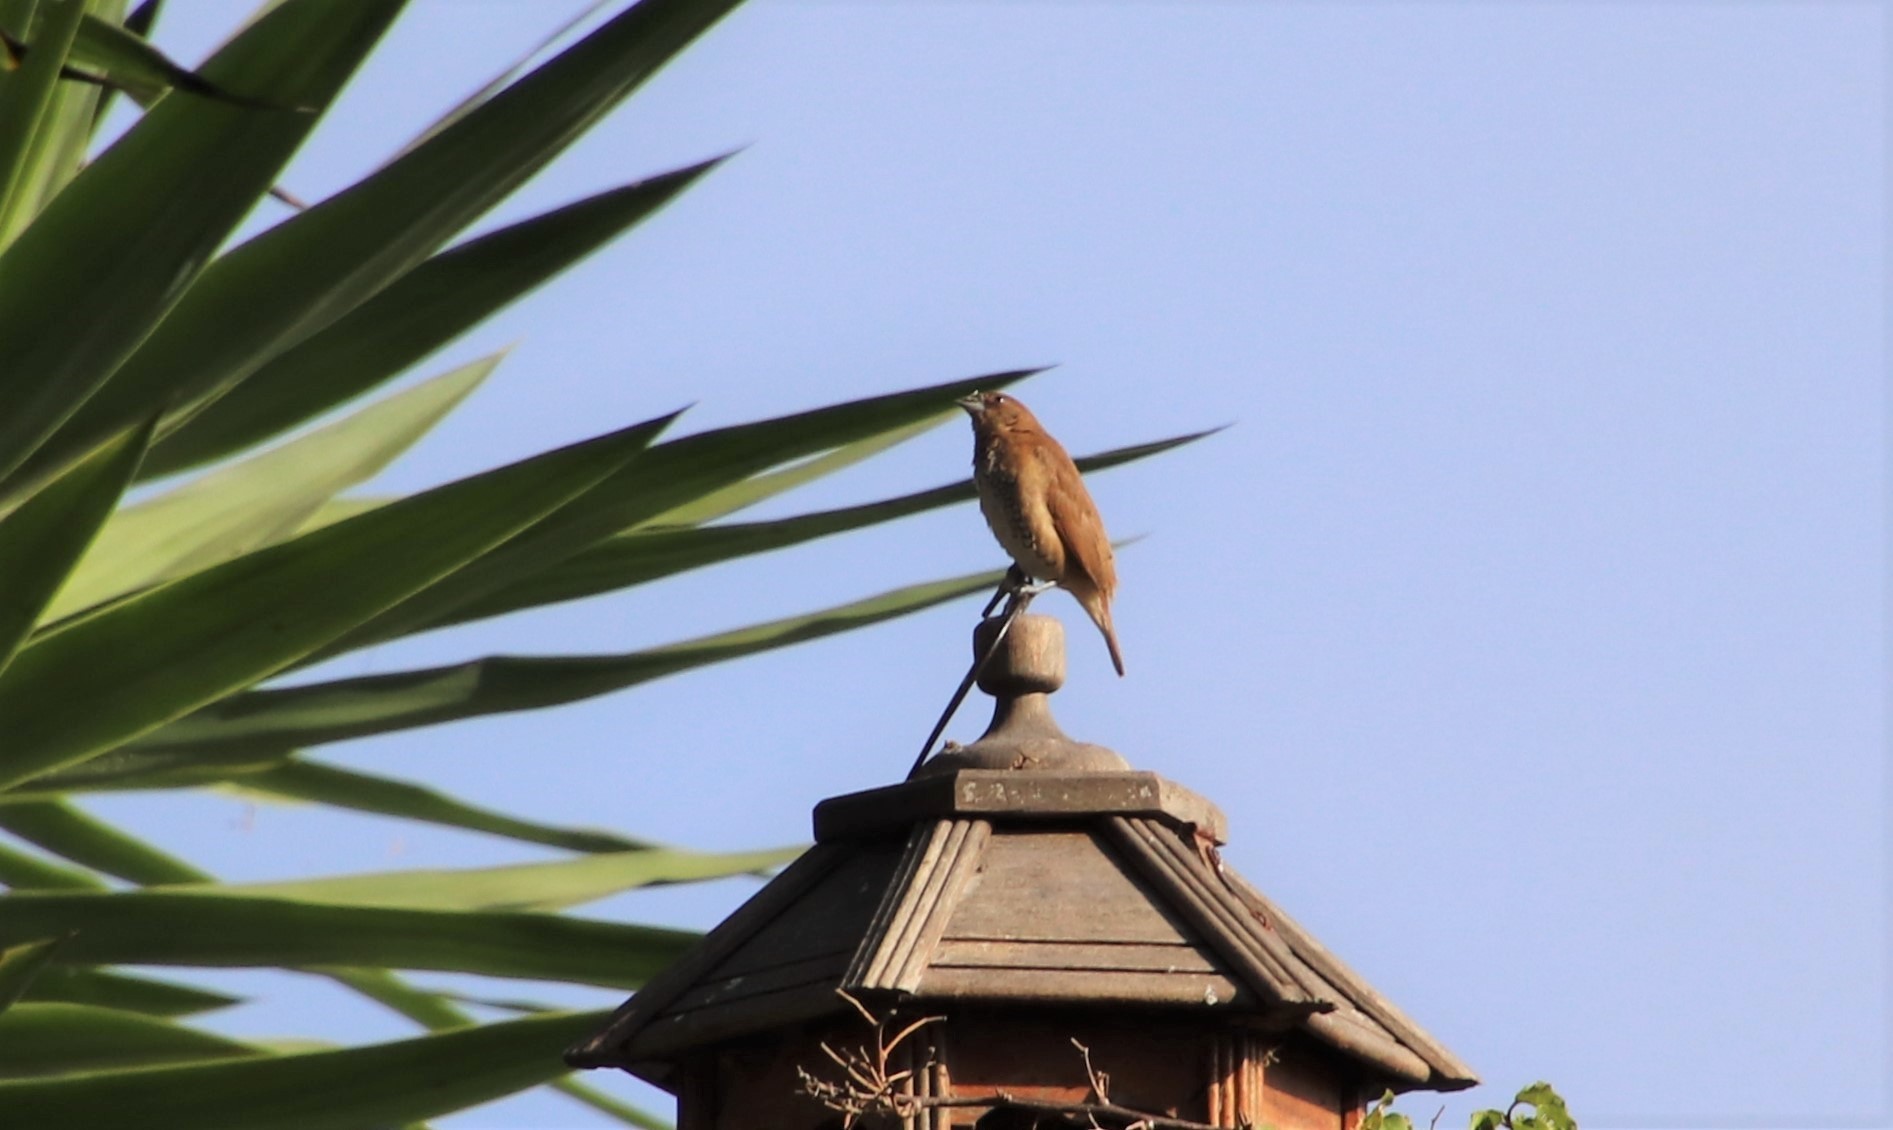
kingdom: Animalia
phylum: Chordata
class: Aves
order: Passeriformes
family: Estrildidae
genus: Lonchura
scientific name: Lonchura punctulata
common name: Scaly-breasted munia
